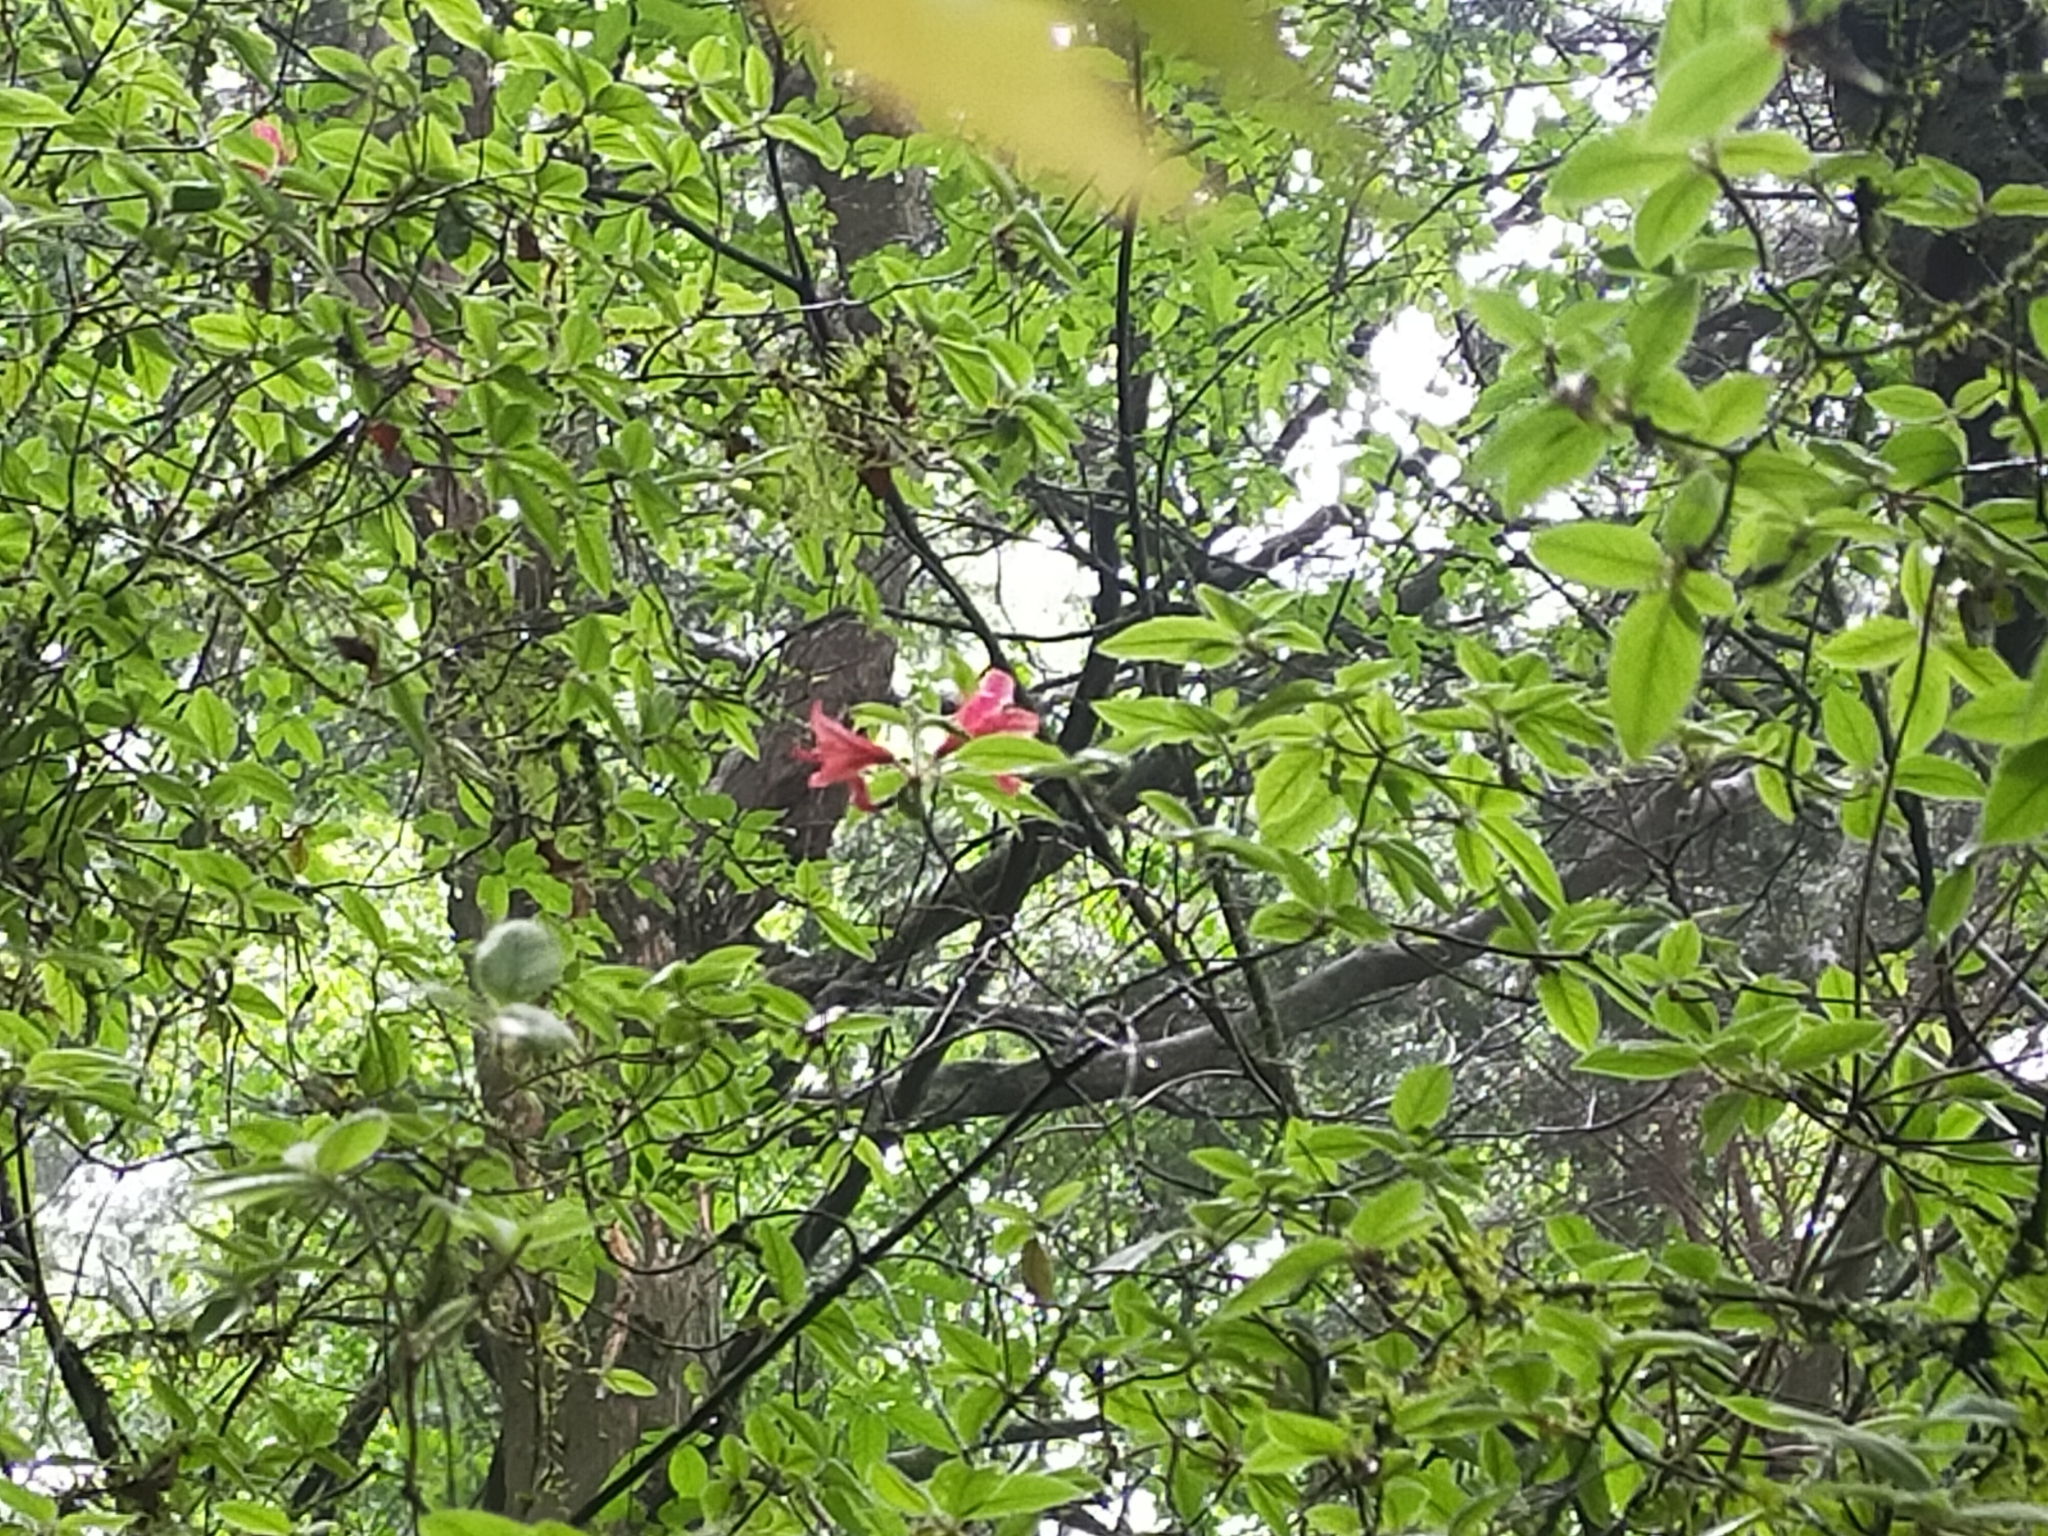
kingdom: Plantae
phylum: Tracheophyta
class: Magnoliopsida
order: Ericales
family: Ericaceae
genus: Rhododendron
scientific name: Rhododendron oldhamii
